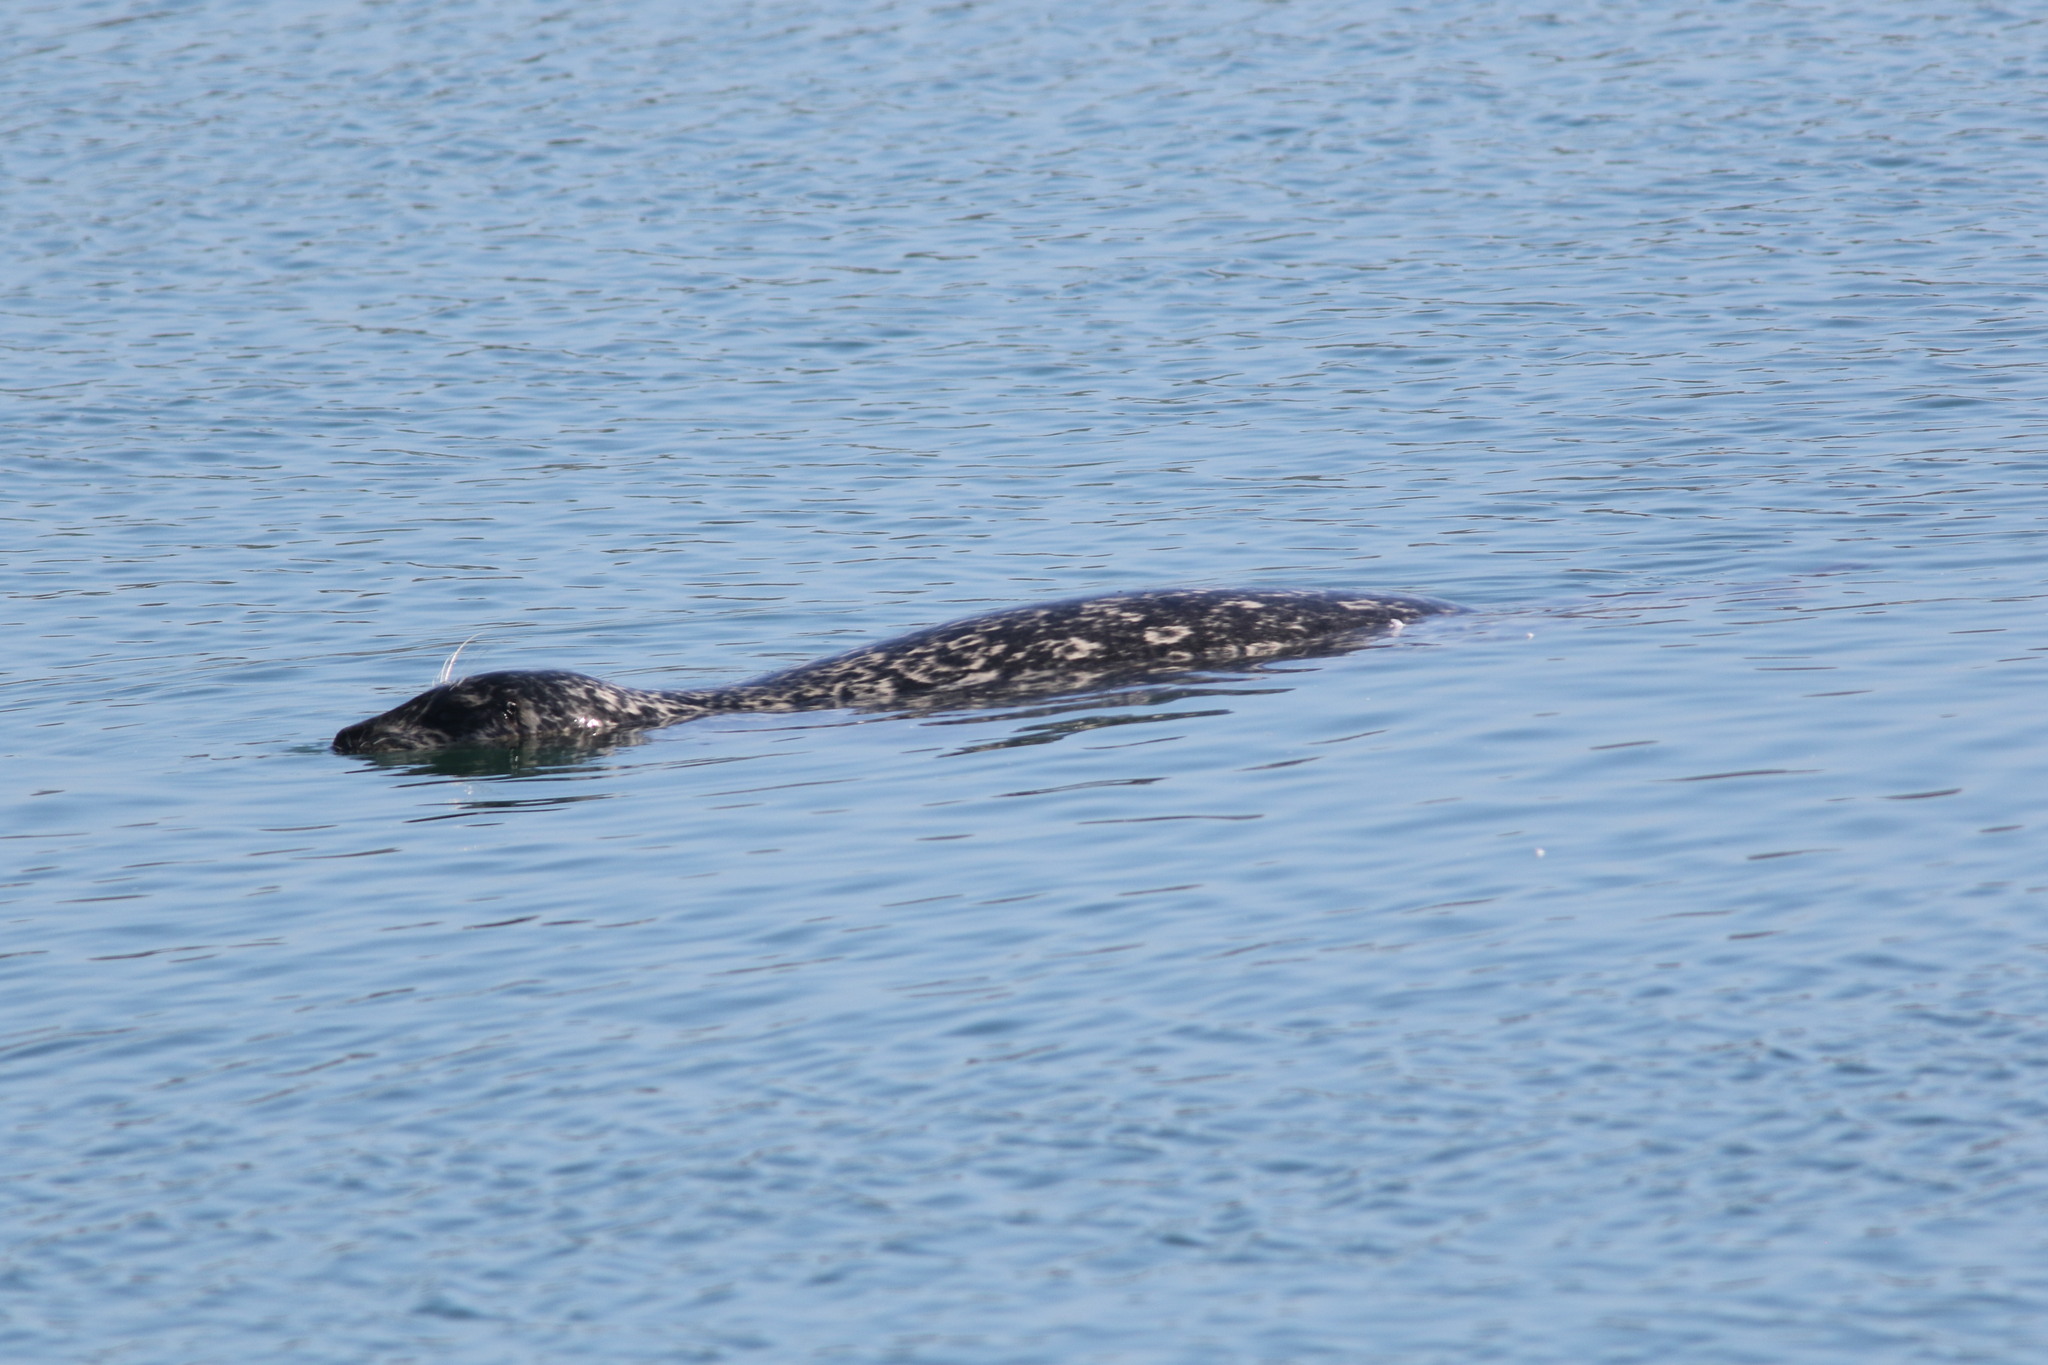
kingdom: Animalia
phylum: Chordata
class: Mammalia
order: Carnivora
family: Phocidae
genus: Phoca
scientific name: Phoca vitulina
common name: Harbor seal
